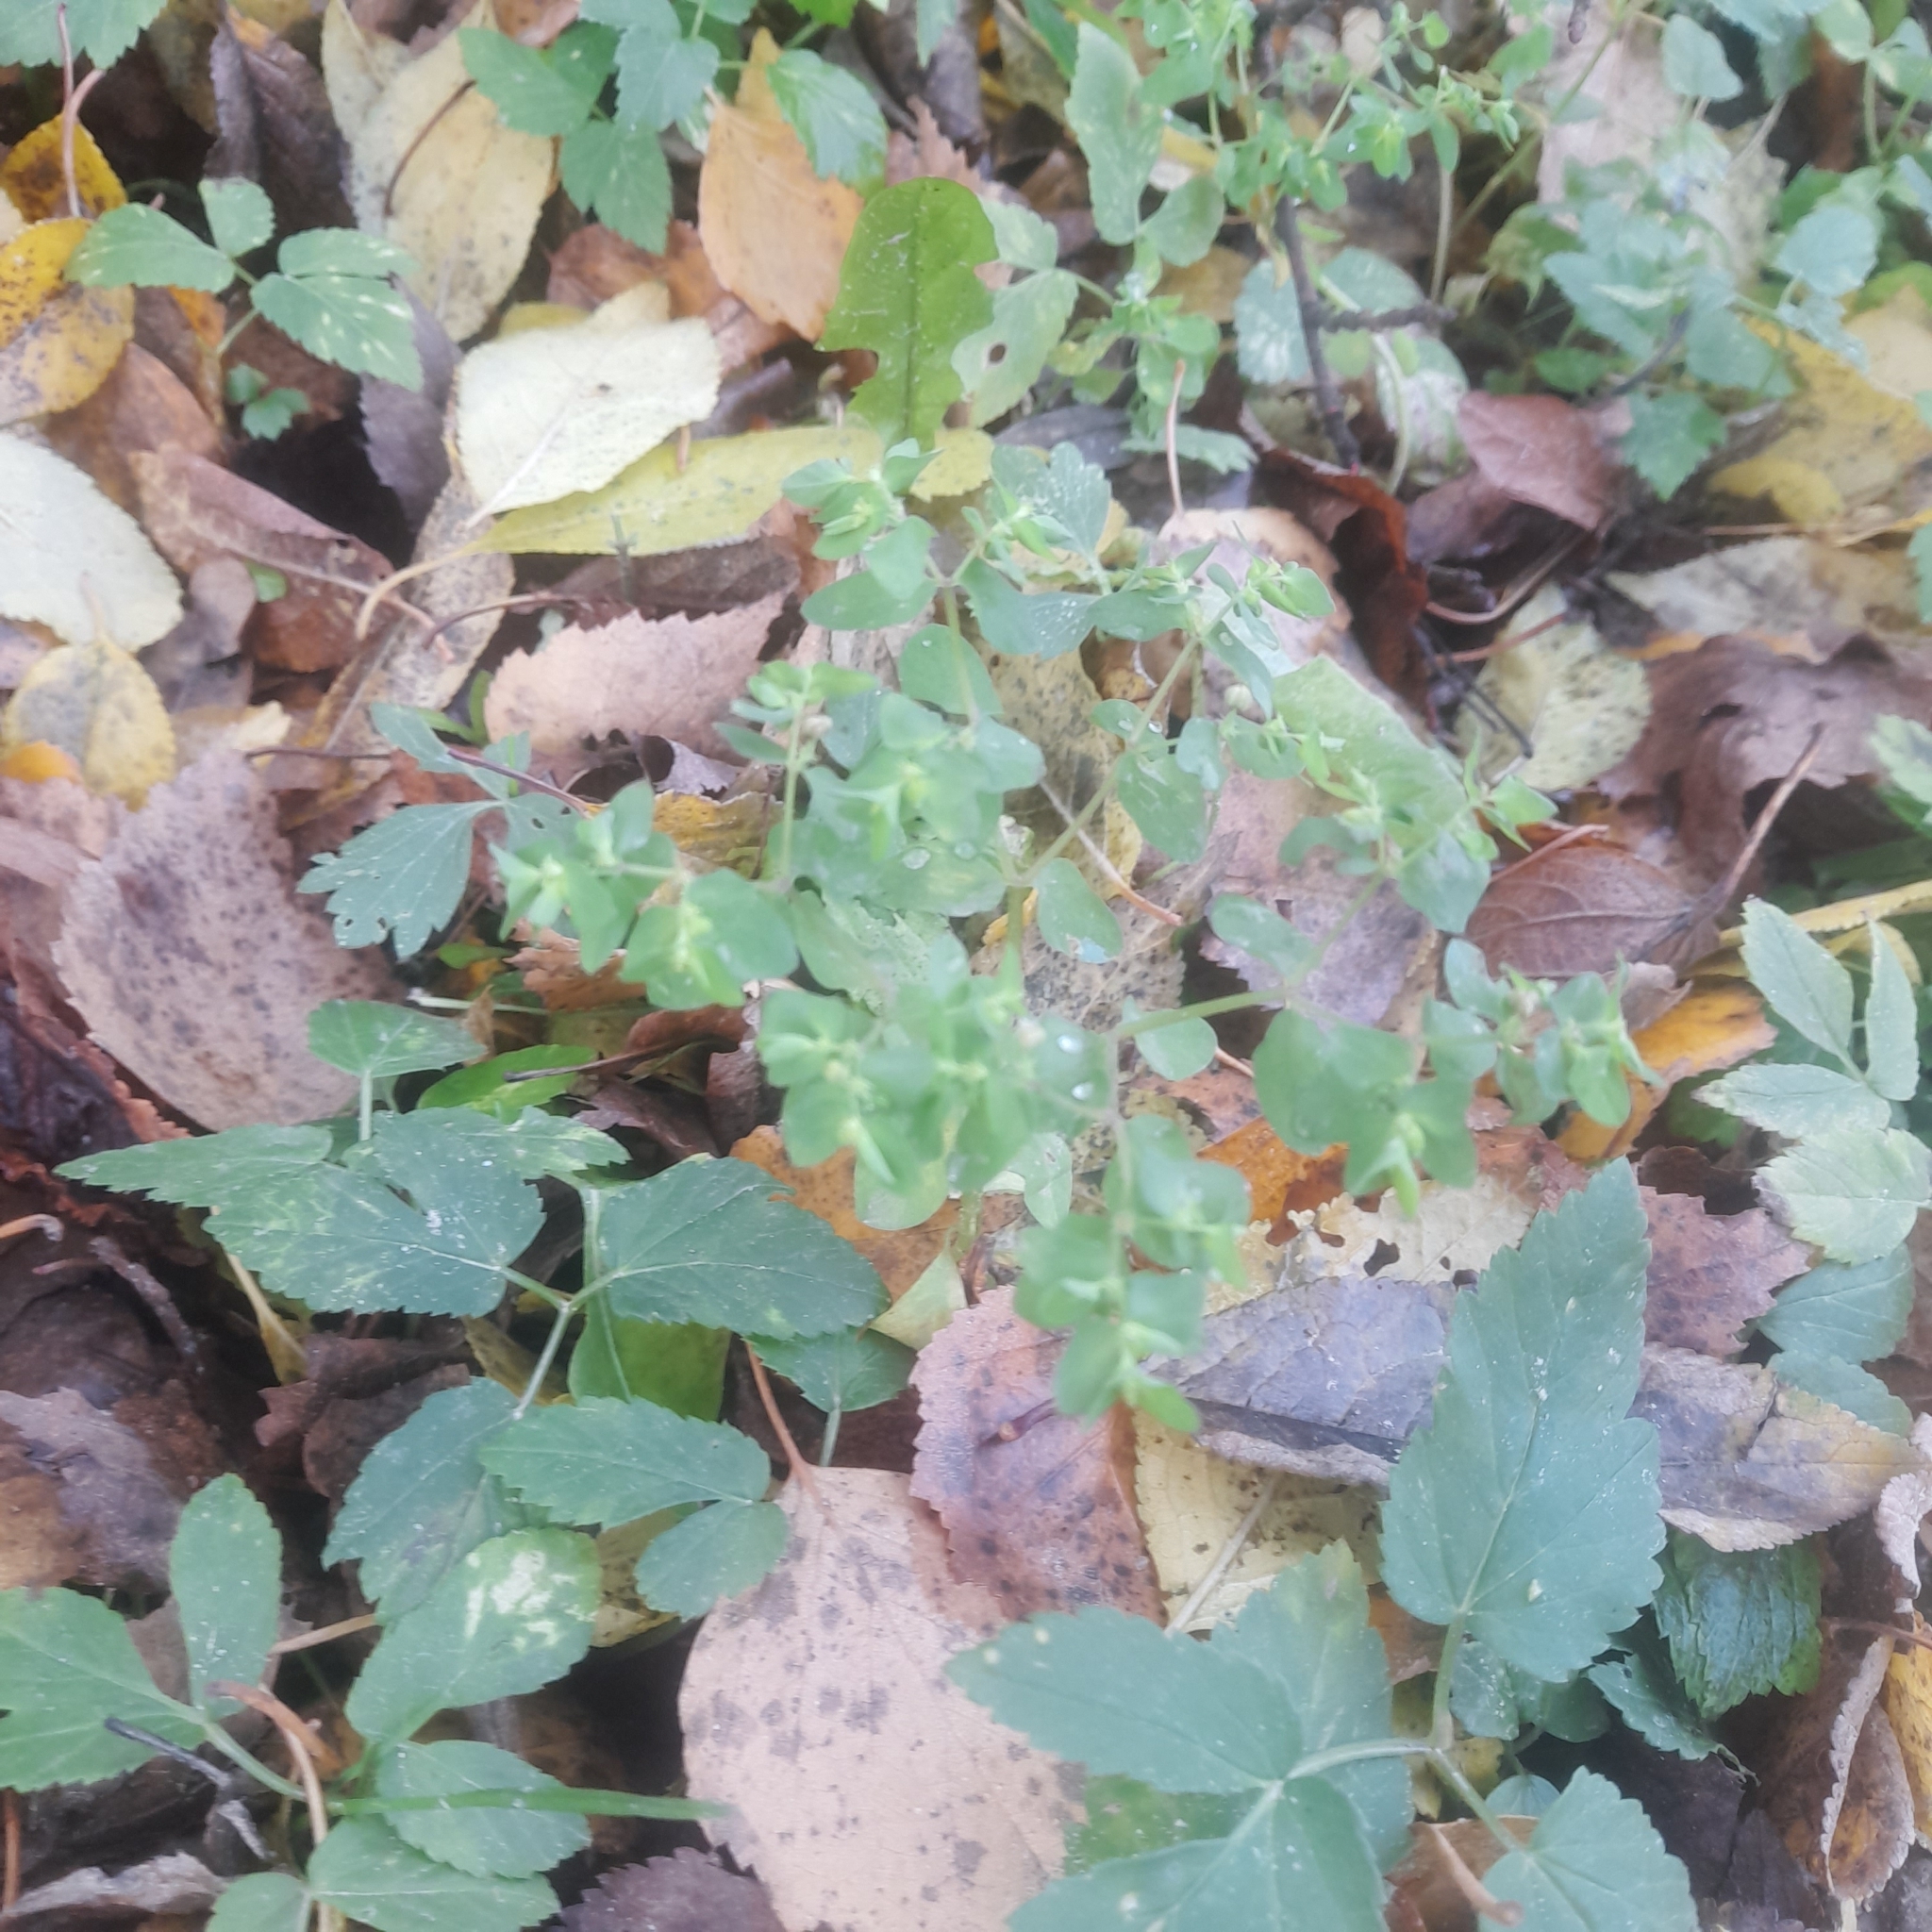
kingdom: Plantae
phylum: Tracheophyta
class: Magnoliopsida
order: Malpighiales
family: Euphorbiaceae
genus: Euphorbia
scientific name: Euphorbia peplus
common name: Petty spurge
